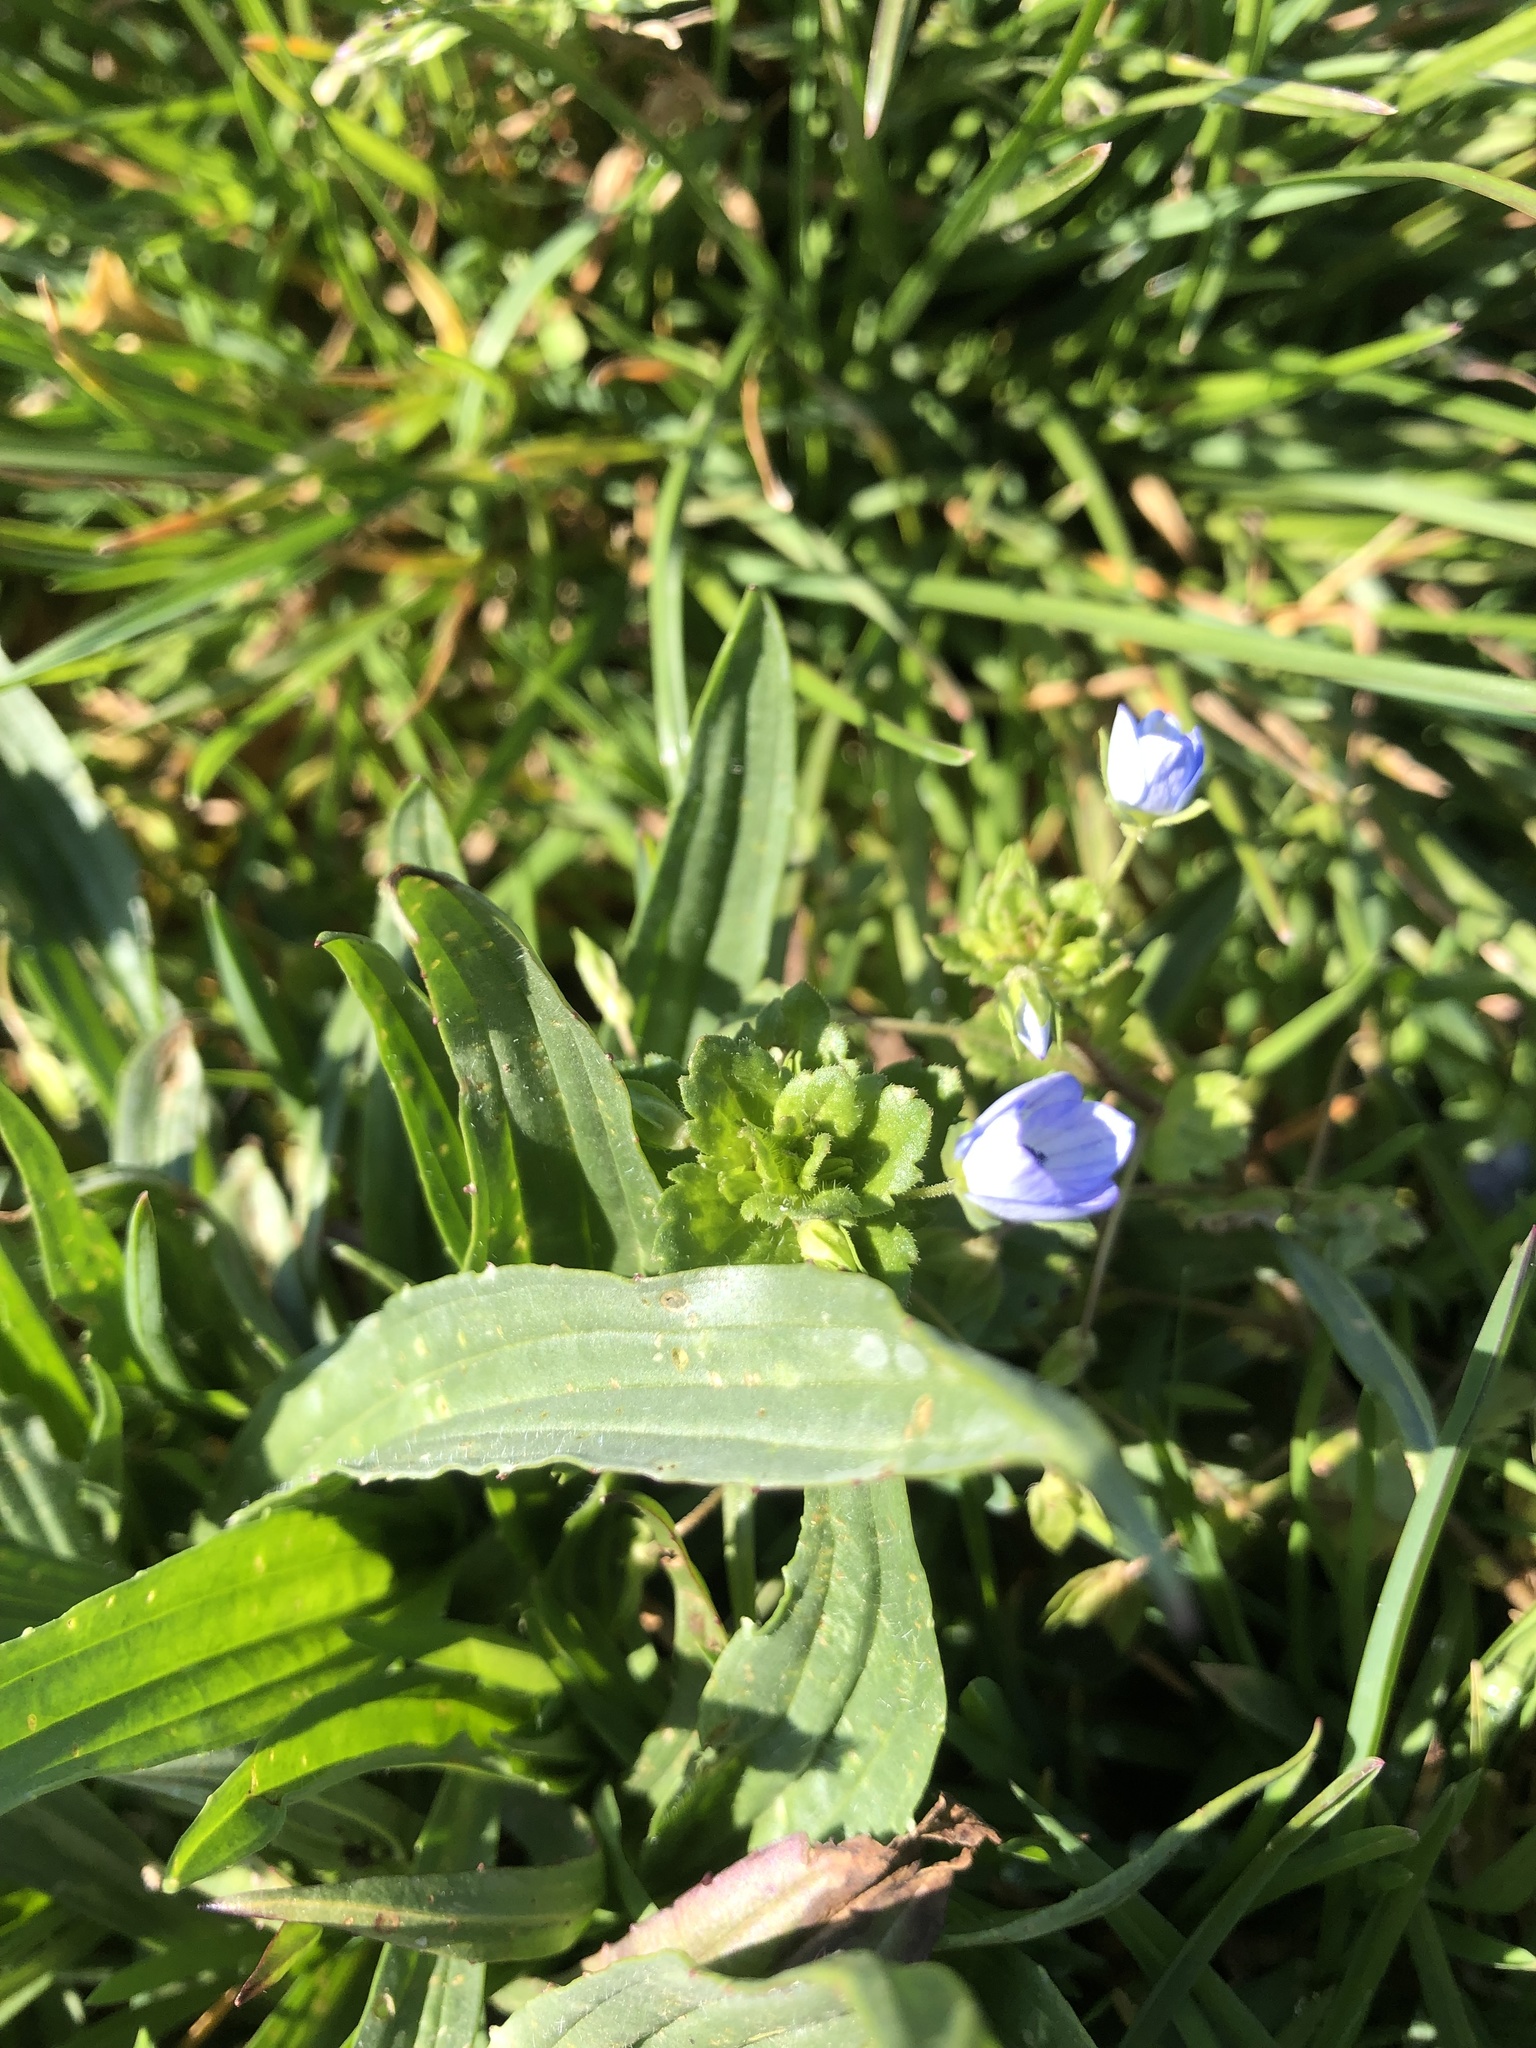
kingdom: Plantae
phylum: Tracheophyta
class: Magnoliopsida
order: Lamiales
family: Plantaginaceae
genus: Veronica
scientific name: Veronica persica
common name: Common field-speedwell
